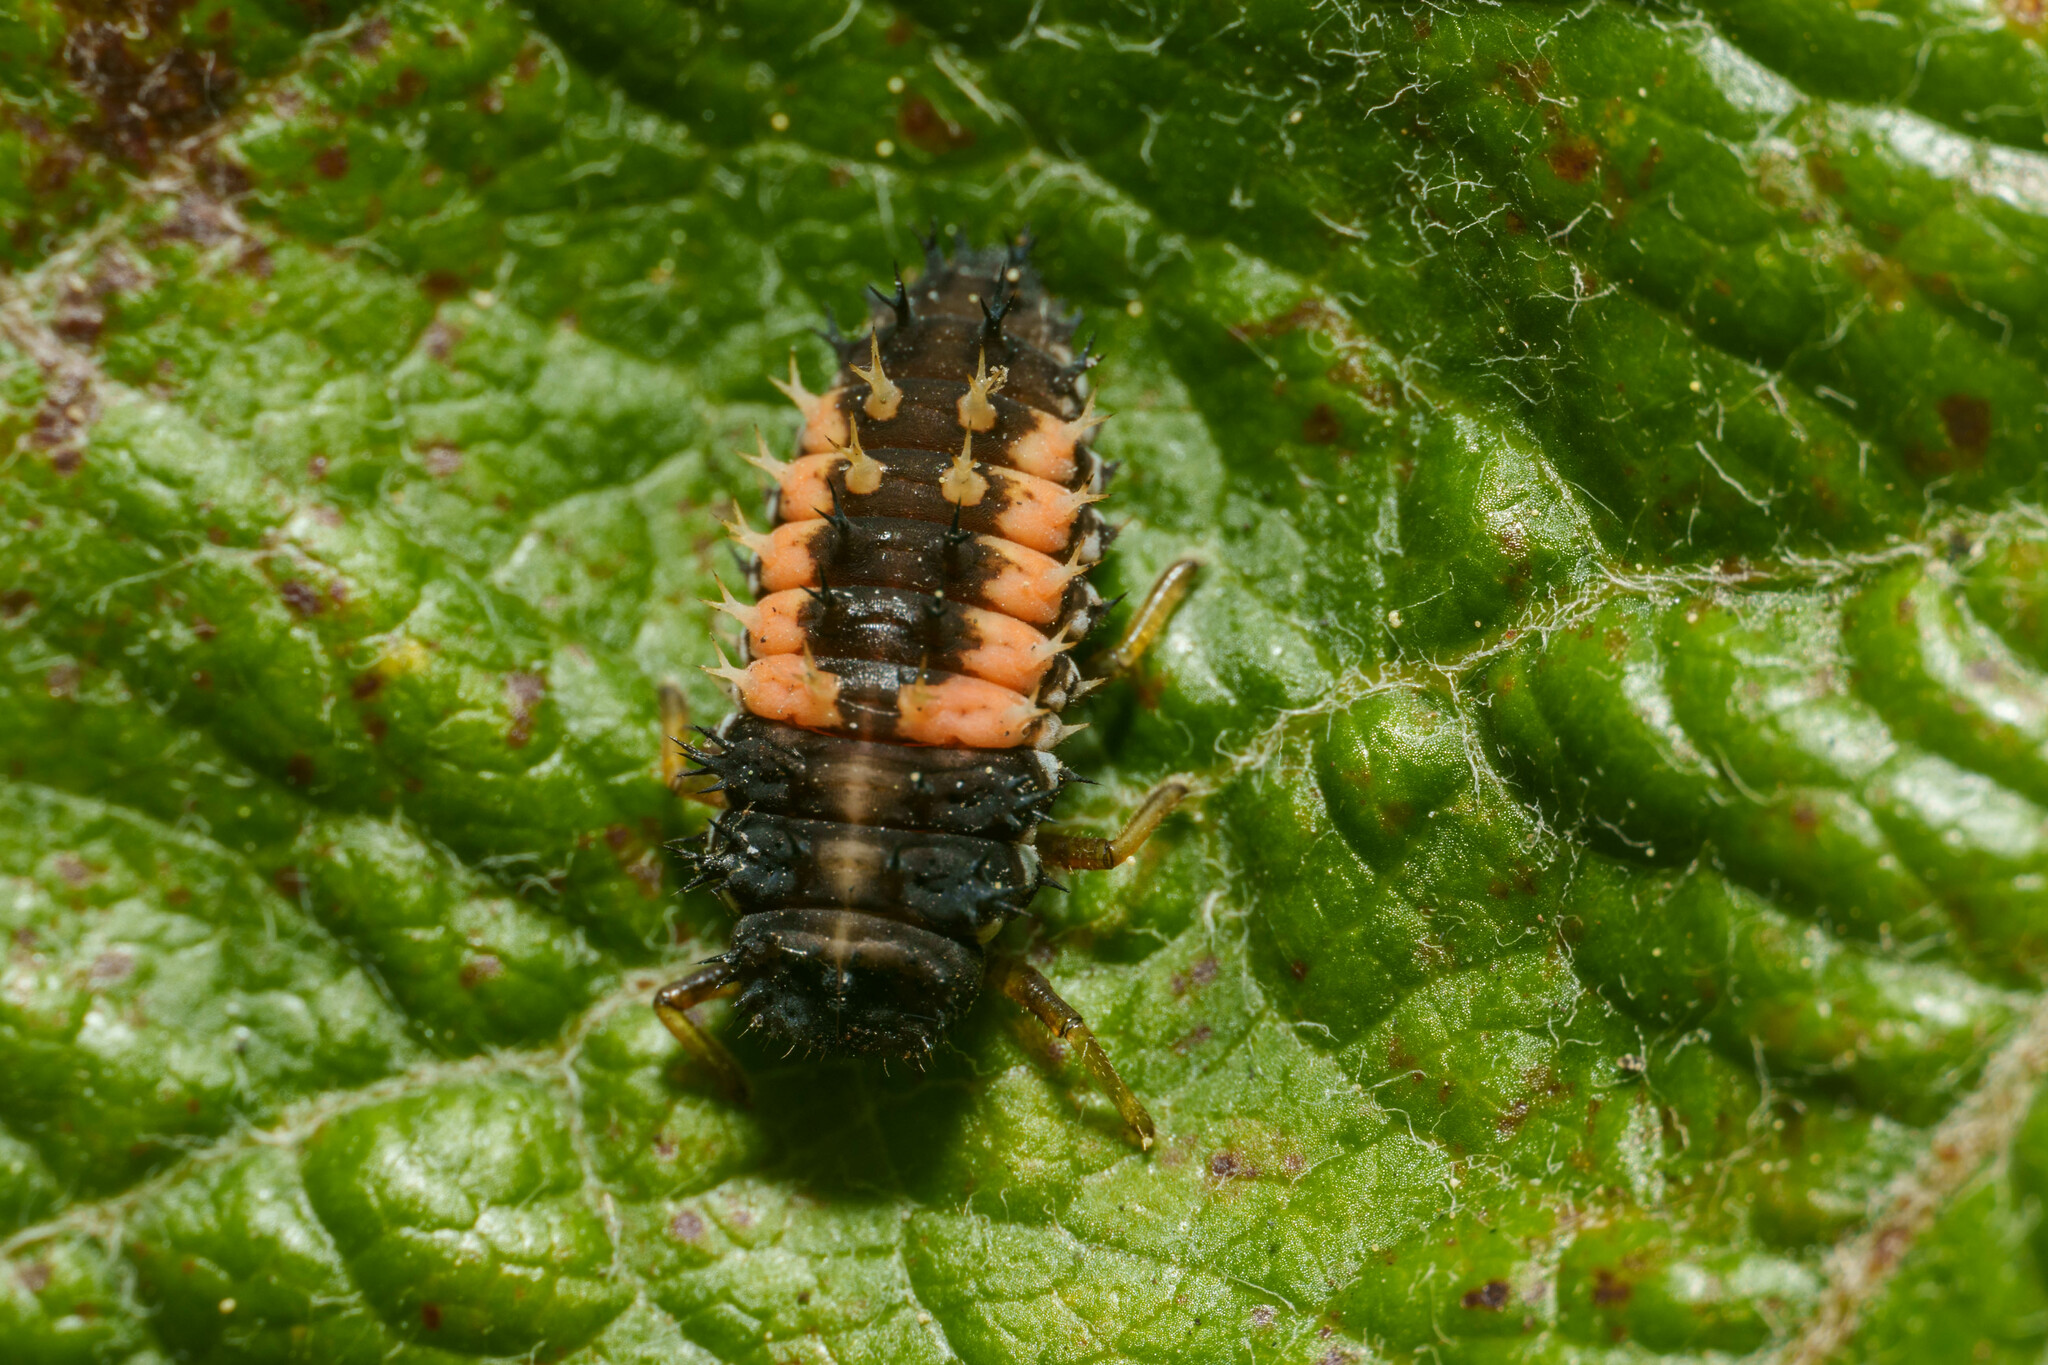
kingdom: Animalia
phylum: Arthropoda
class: Insecta
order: Coleoptera
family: Coccinellidae
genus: Harmonia
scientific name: Harmonia axyridis
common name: Harlequin ladybird
